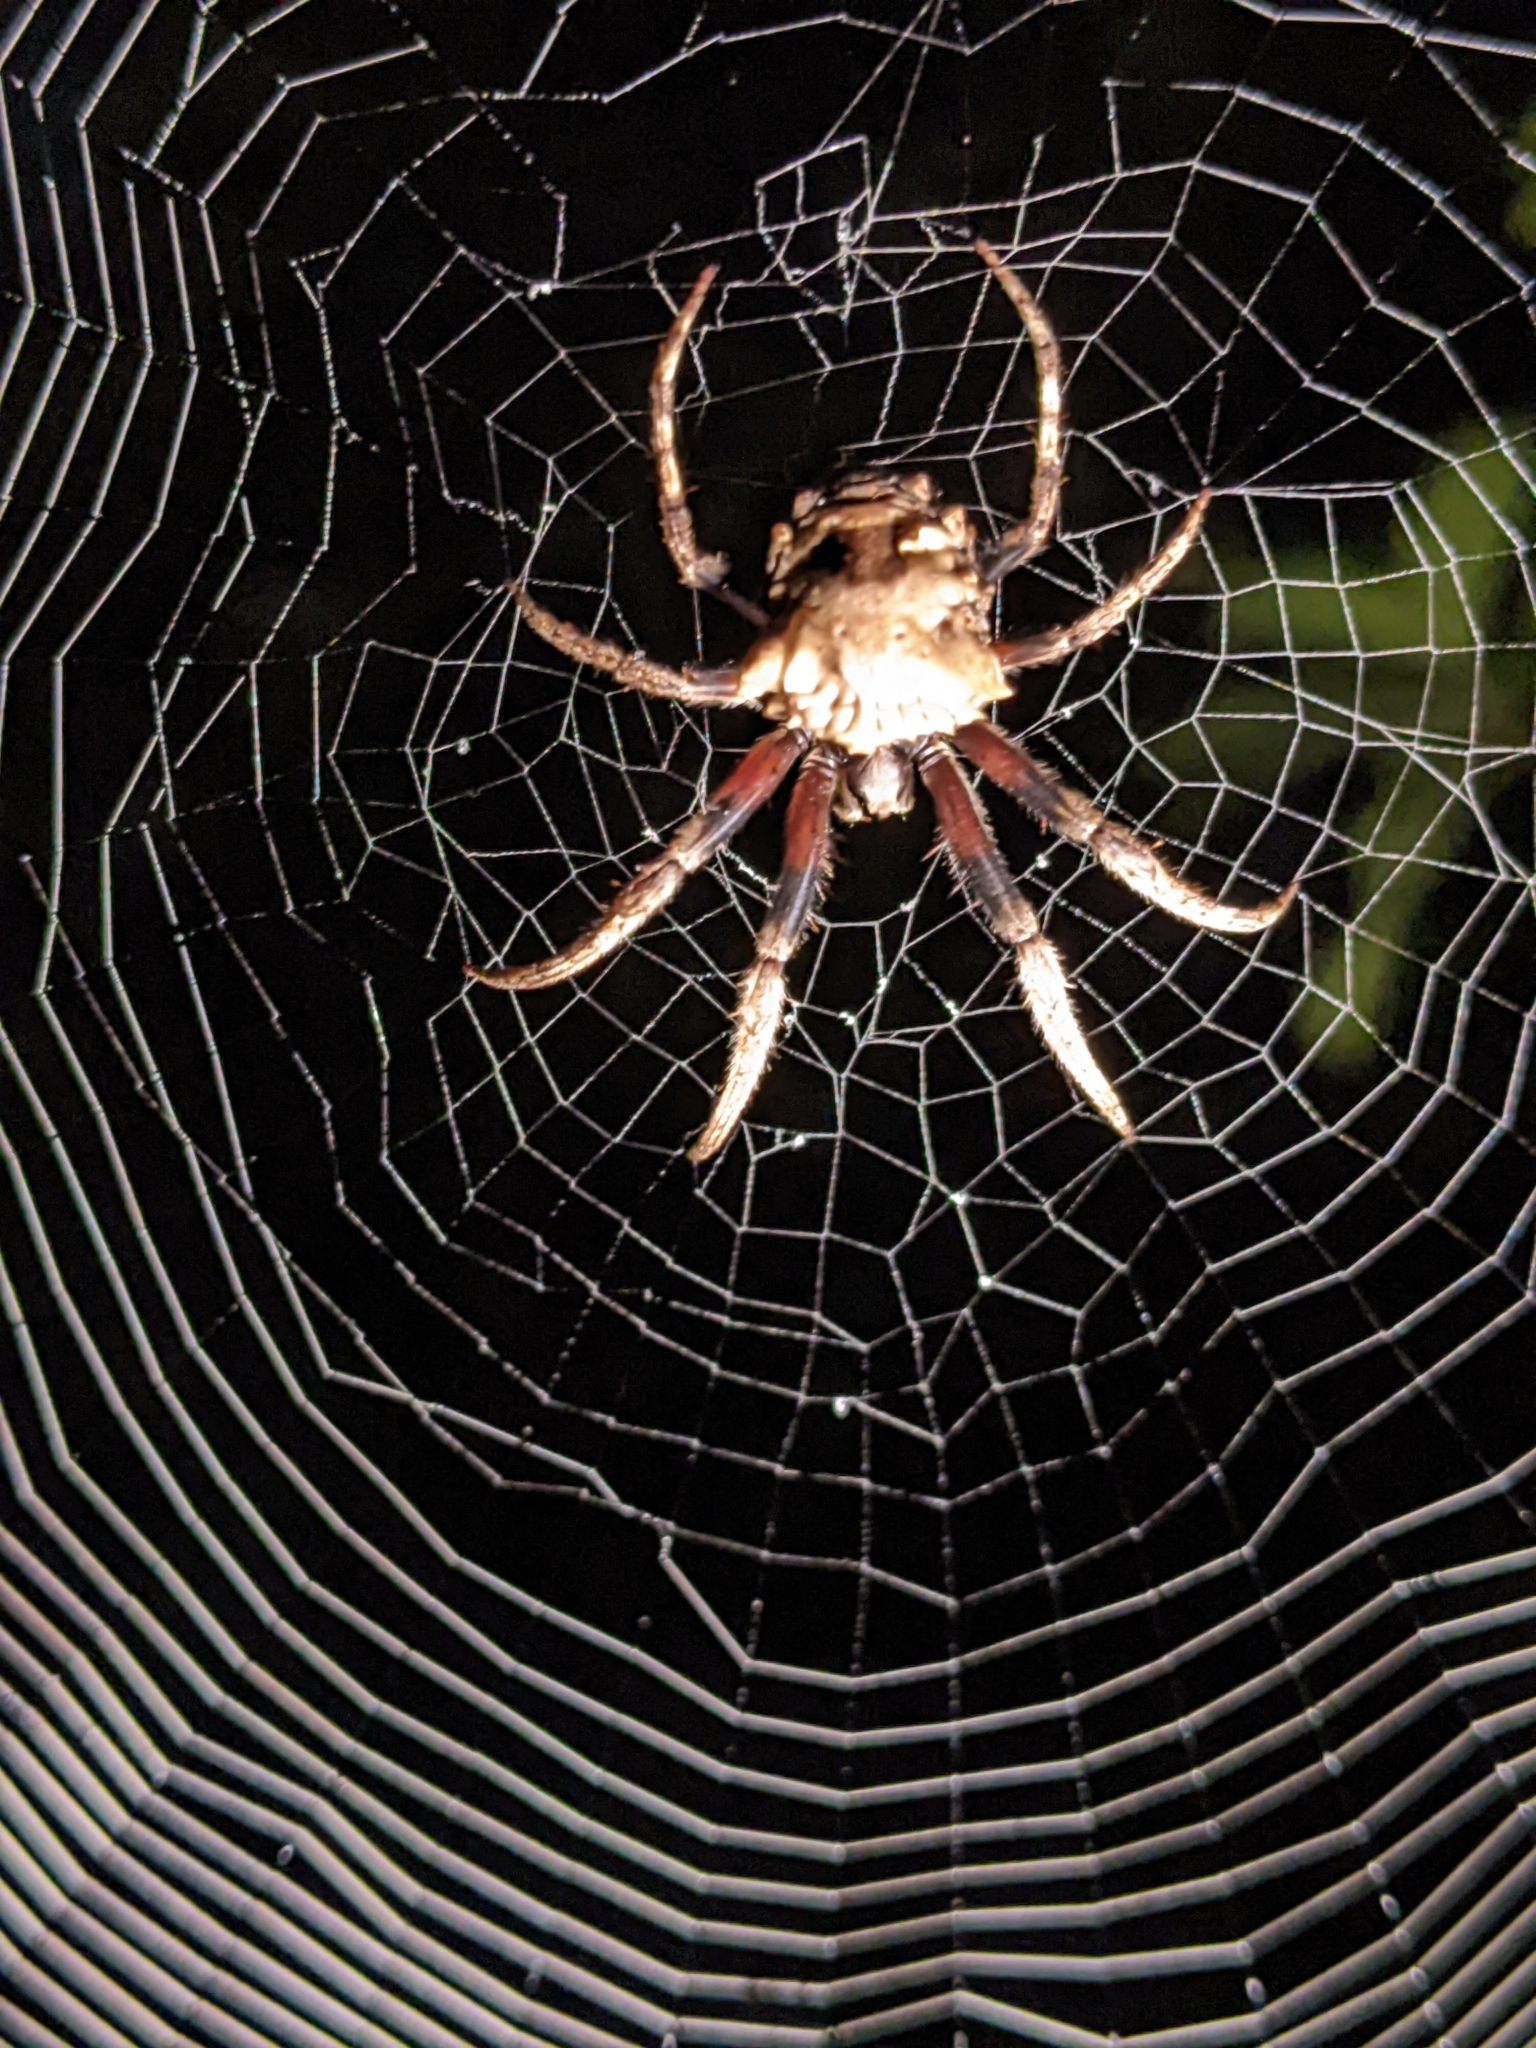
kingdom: Animalia
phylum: Arthropoda
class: Arachnida
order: Araneae
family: Araneidae
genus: Poltys
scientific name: Poltys illepidus
